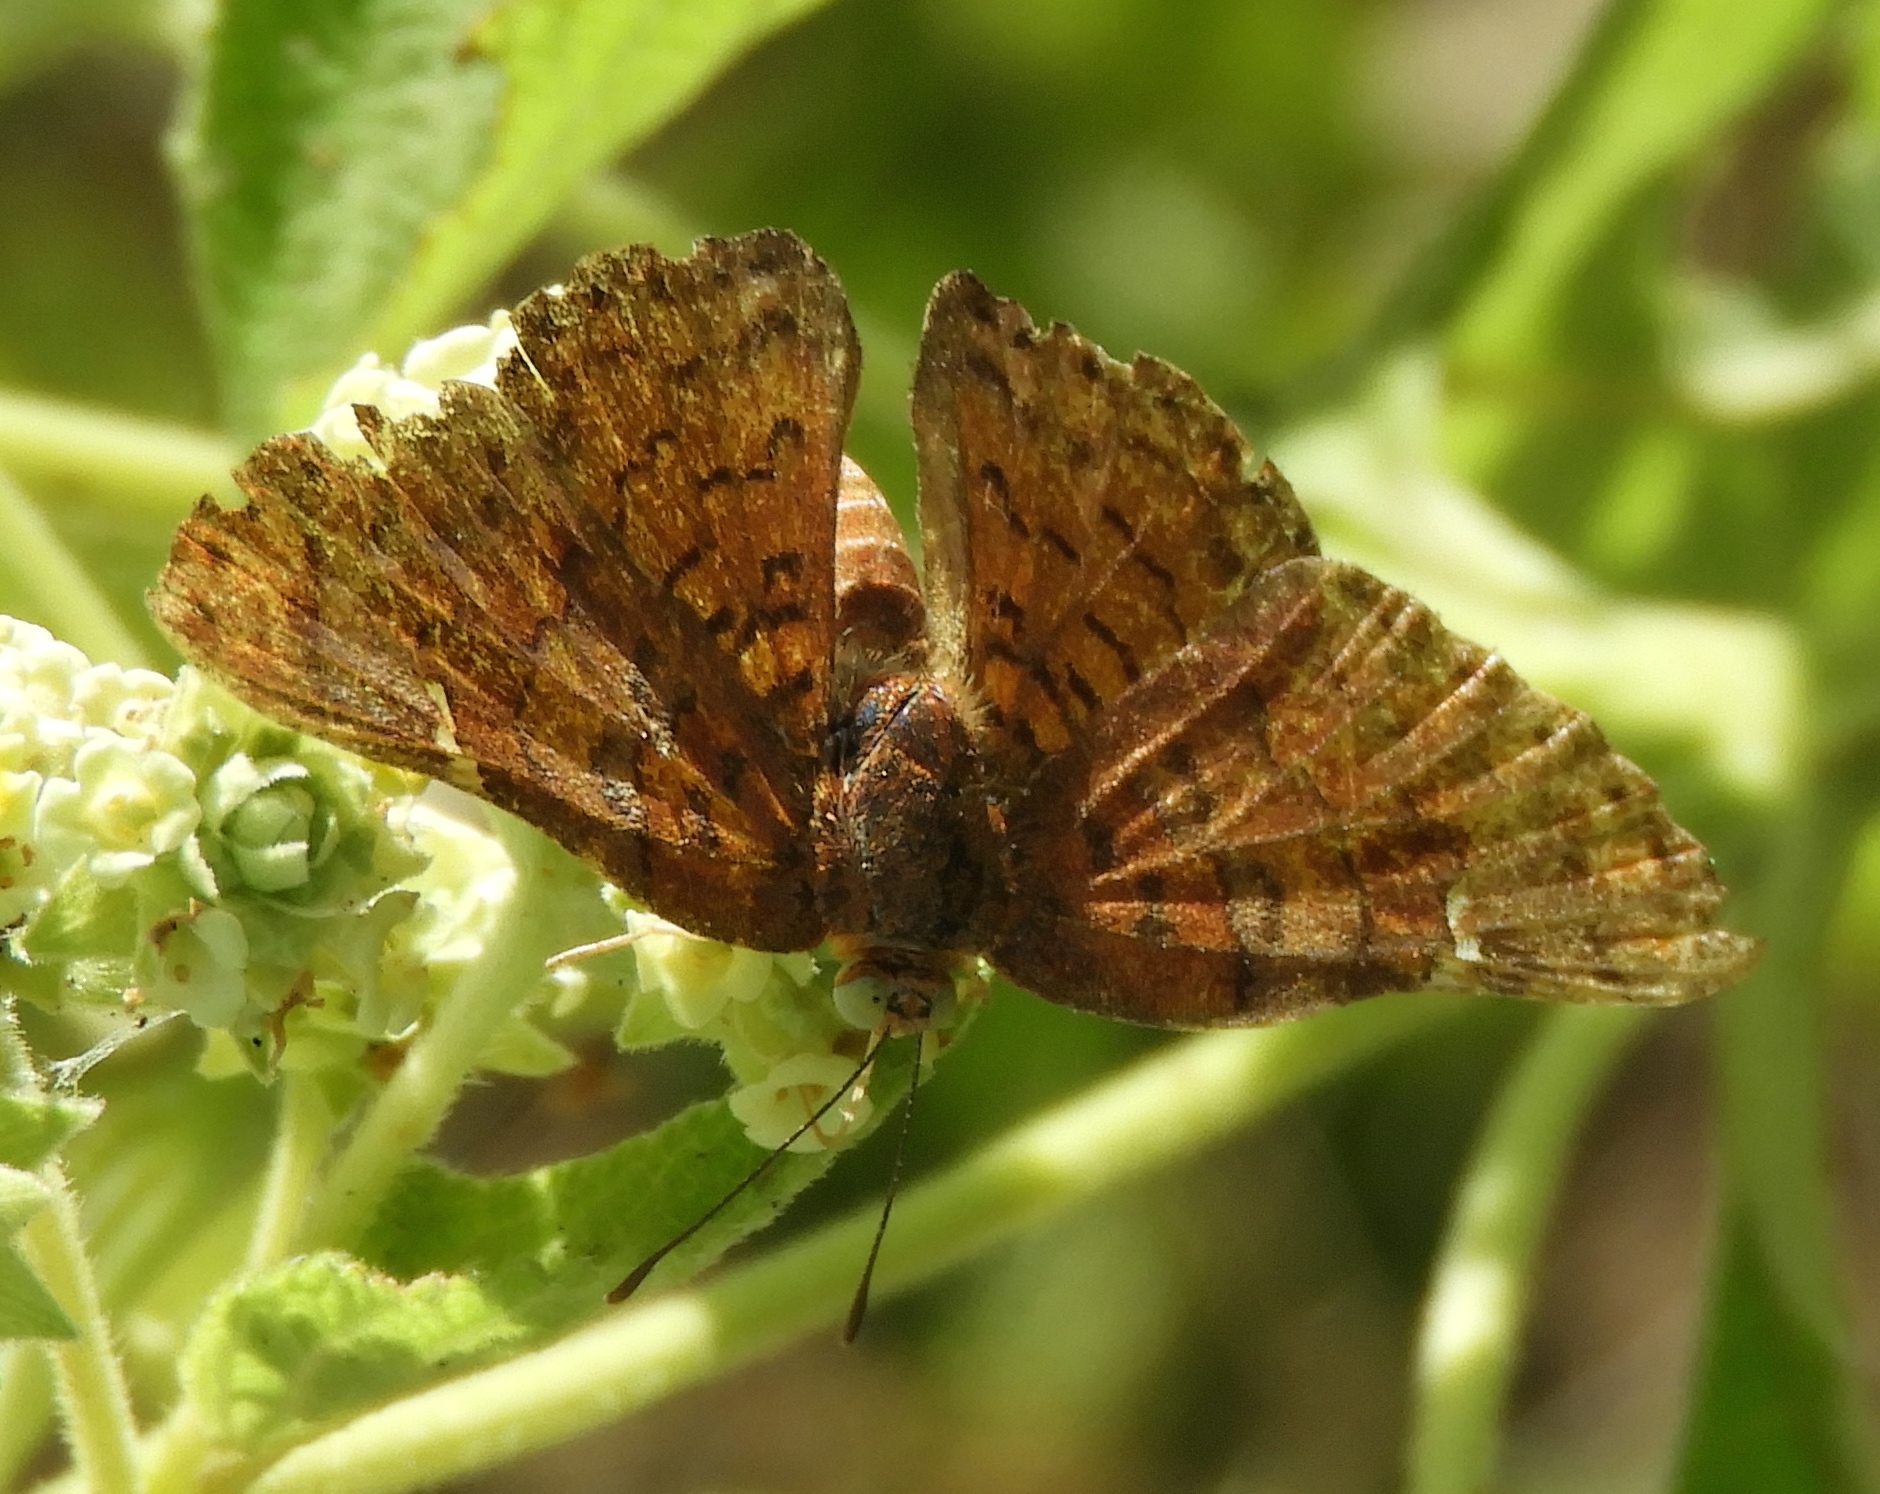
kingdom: Animalia
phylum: Arthropoda
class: Insecta
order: Lepidoptera
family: Lycaenidae
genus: Emesis
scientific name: Emesis
